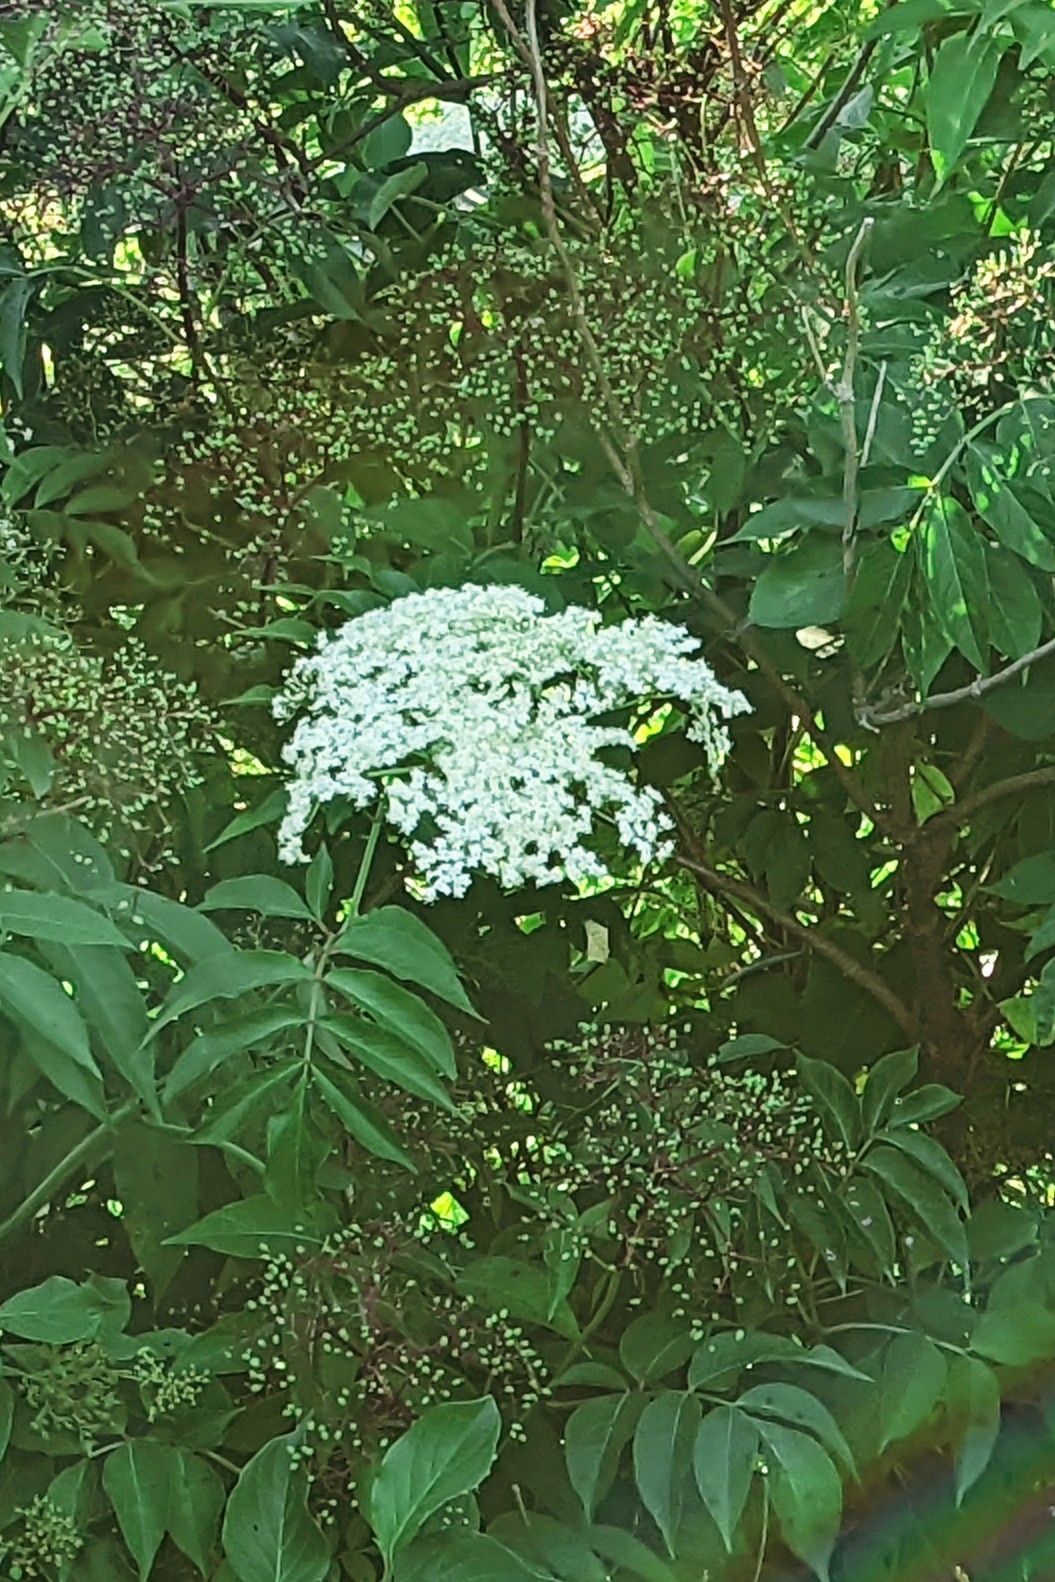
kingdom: Plantae
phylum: Tracheophyta
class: Magnoliopsida
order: Dipsacales
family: Viburnaceae
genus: Sambucus
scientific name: Sambucus canadensis
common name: American elder
